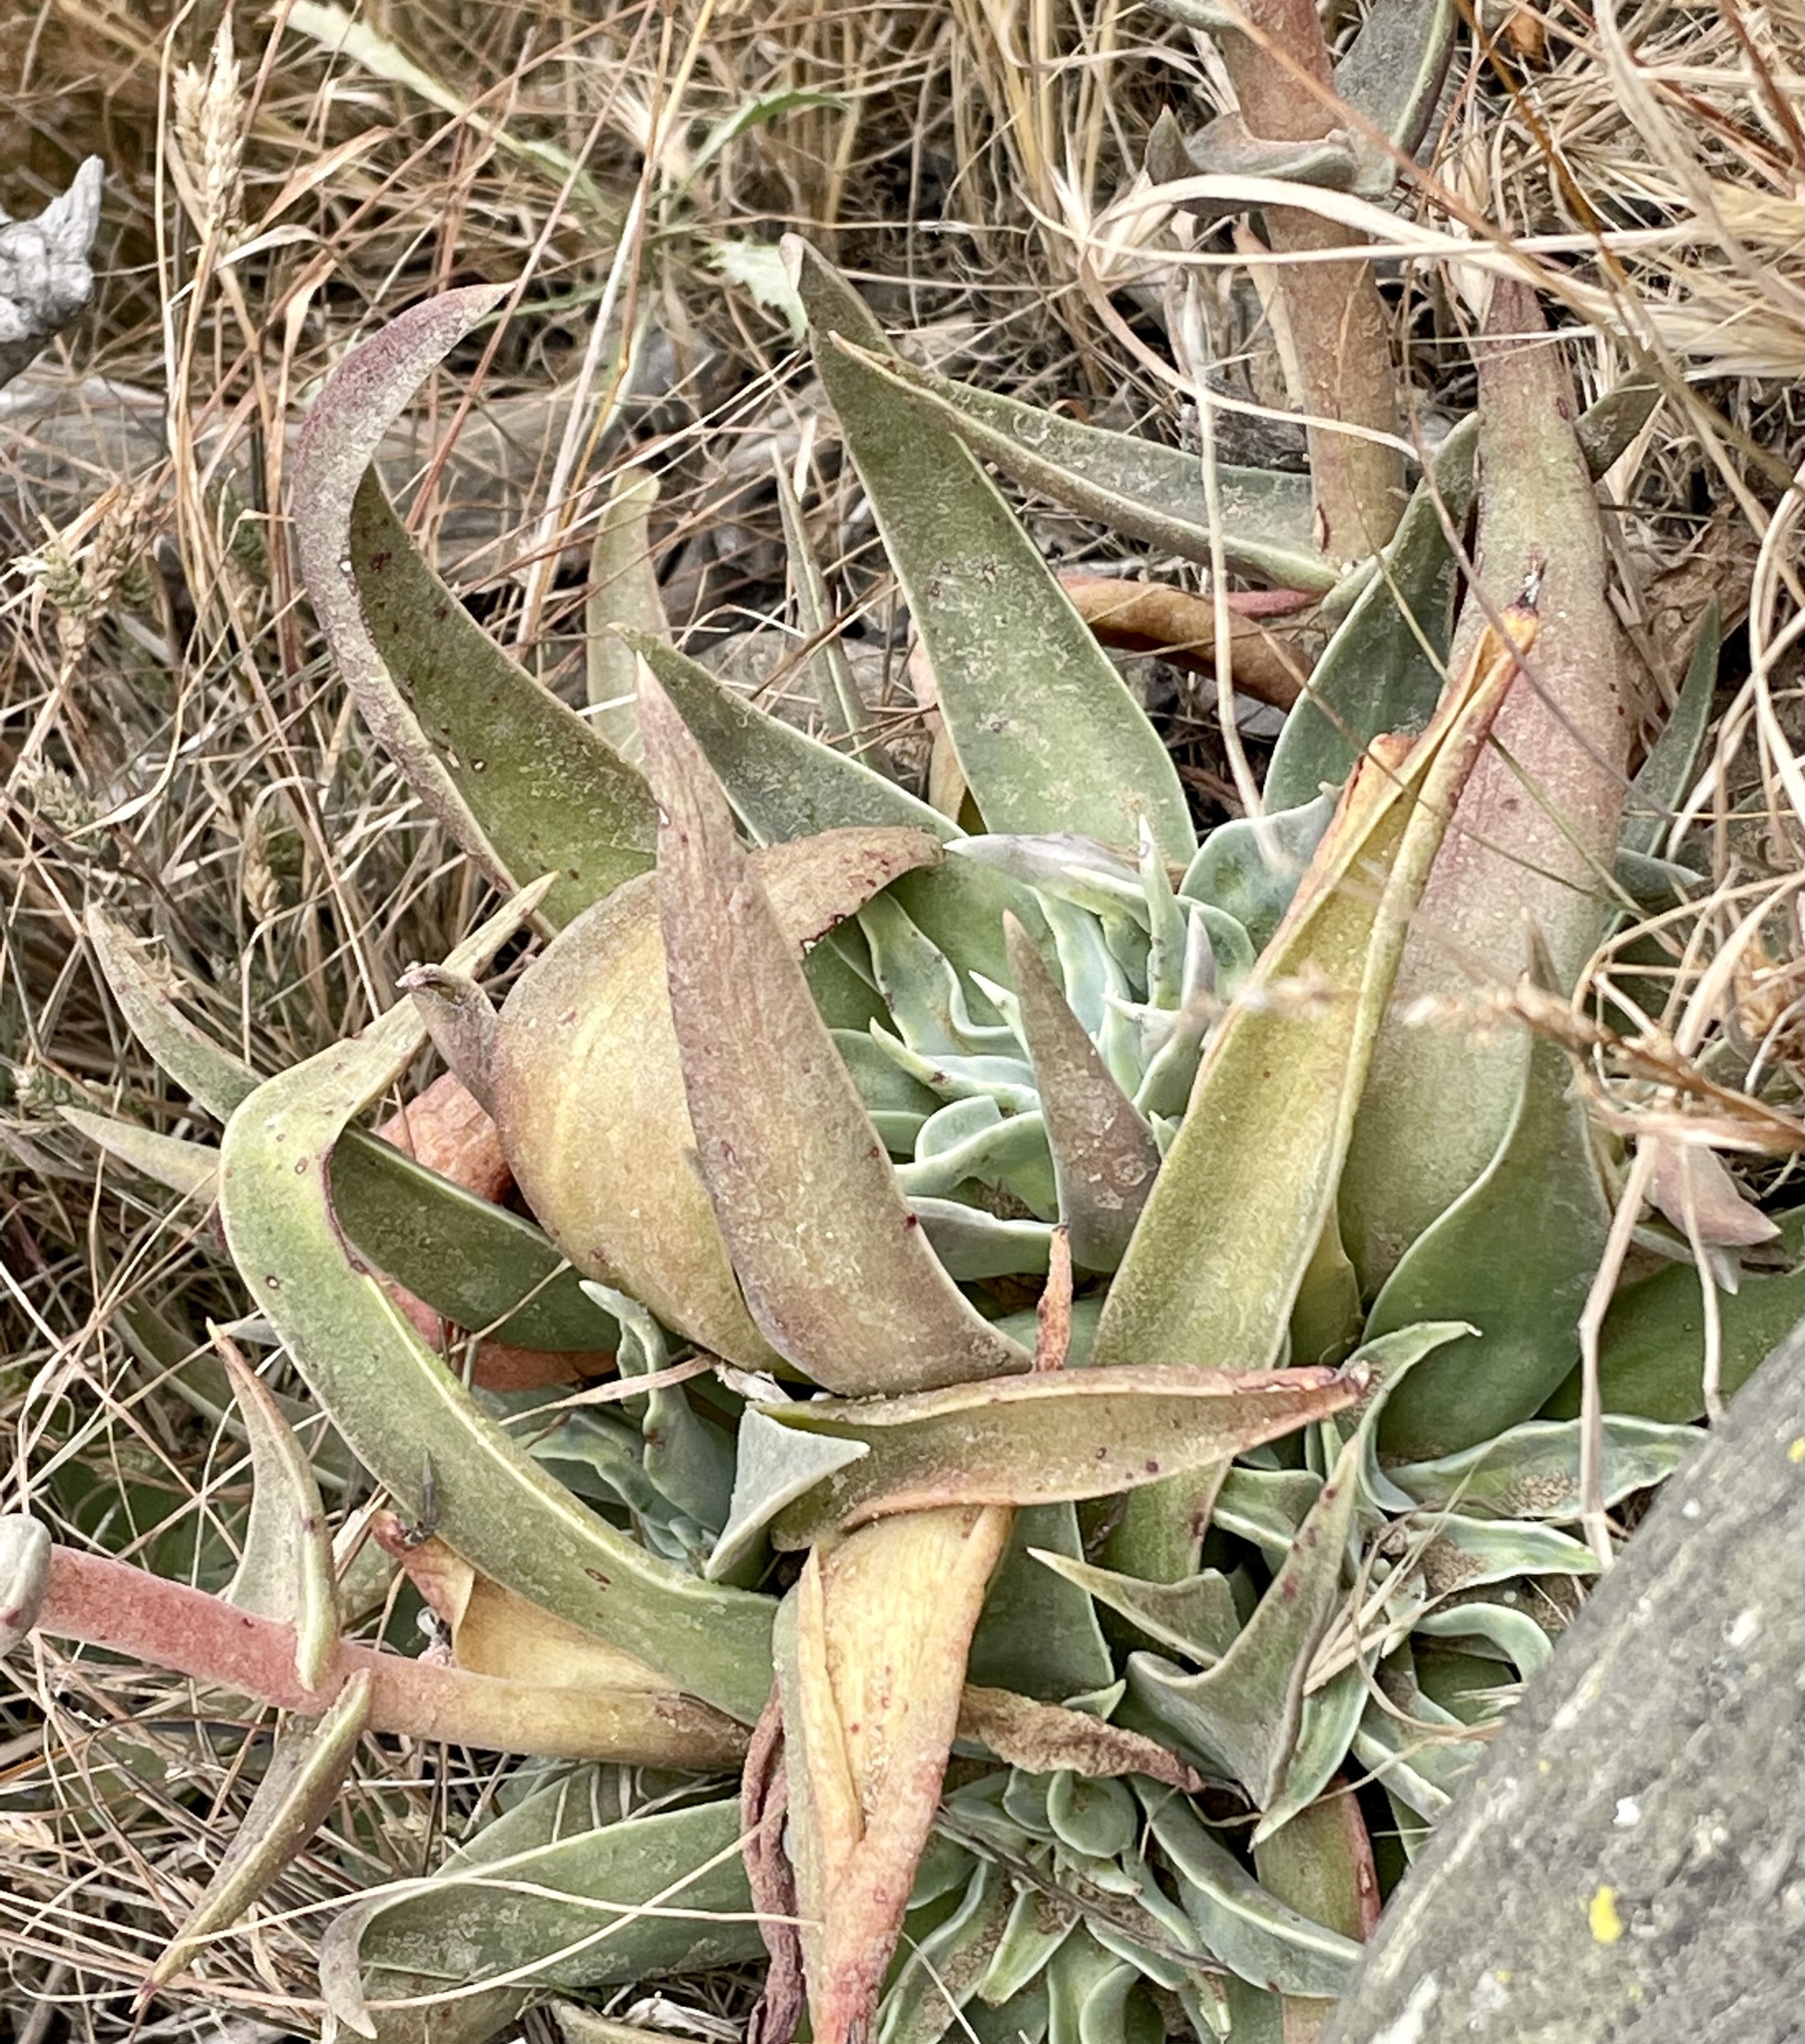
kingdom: Plantae
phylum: Tracheophyta
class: Magnoliopsida
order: Saxifragales
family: Crassulaceae
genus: Dudleya
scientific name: Dudleya lanceolata
